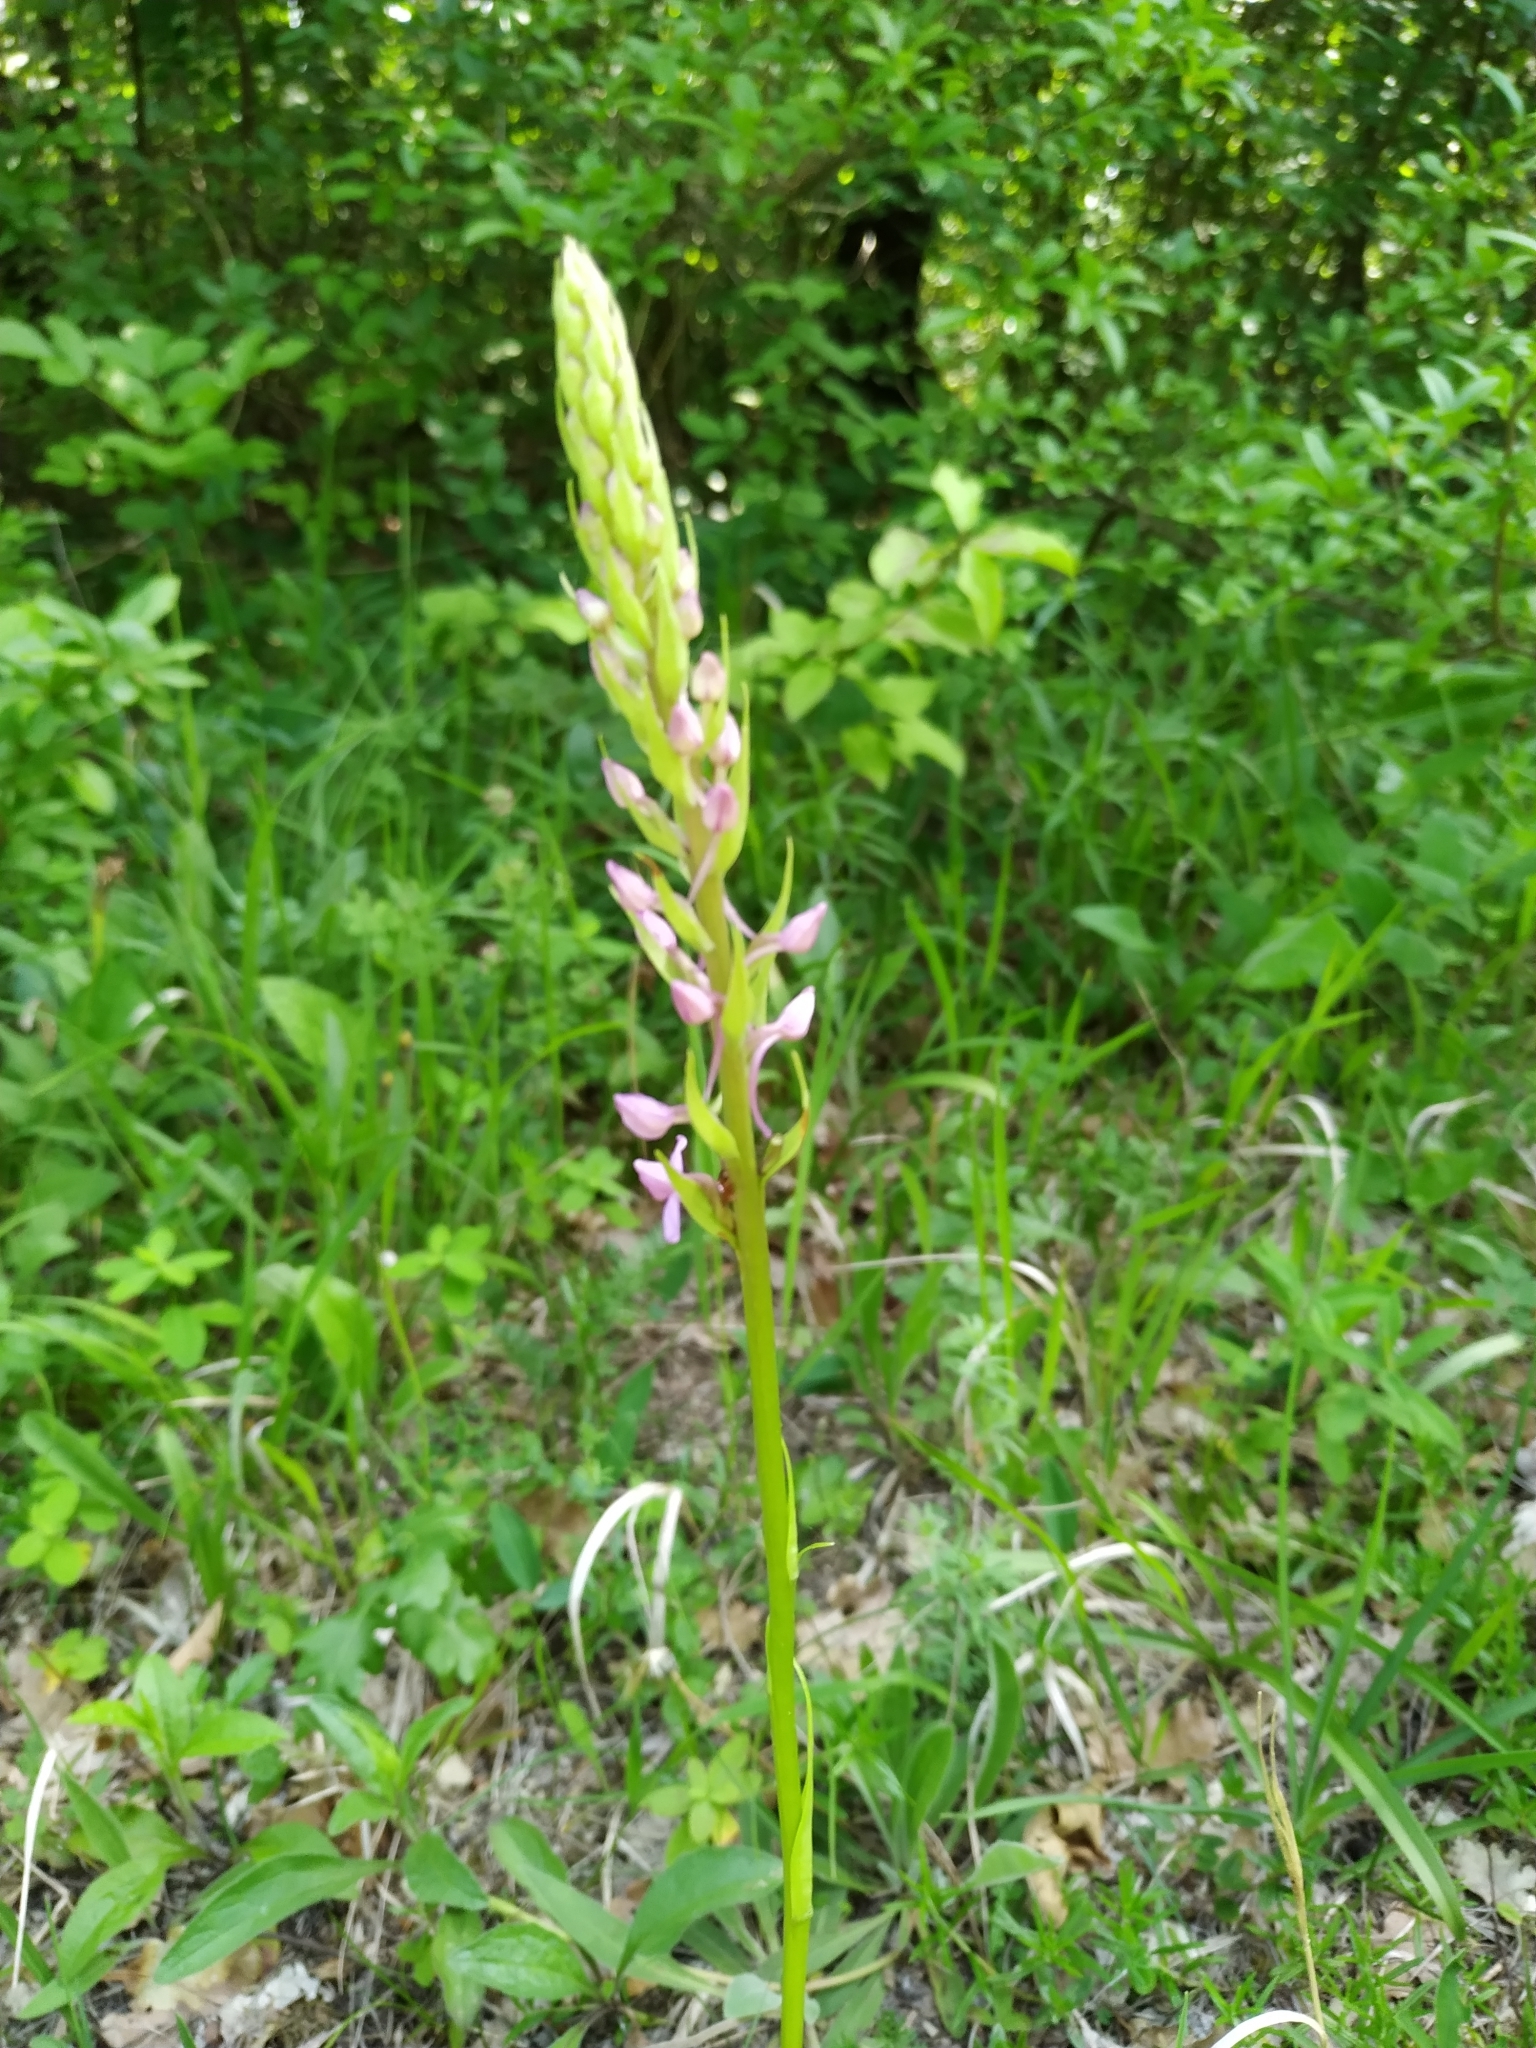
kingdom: Plantae
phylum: Tracheophyta
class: Liliopsida
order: Asparagales
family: Orchidaceae
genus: Gymnadenia
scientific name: Gymnadenia conopsea
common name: Fragrant orchid
